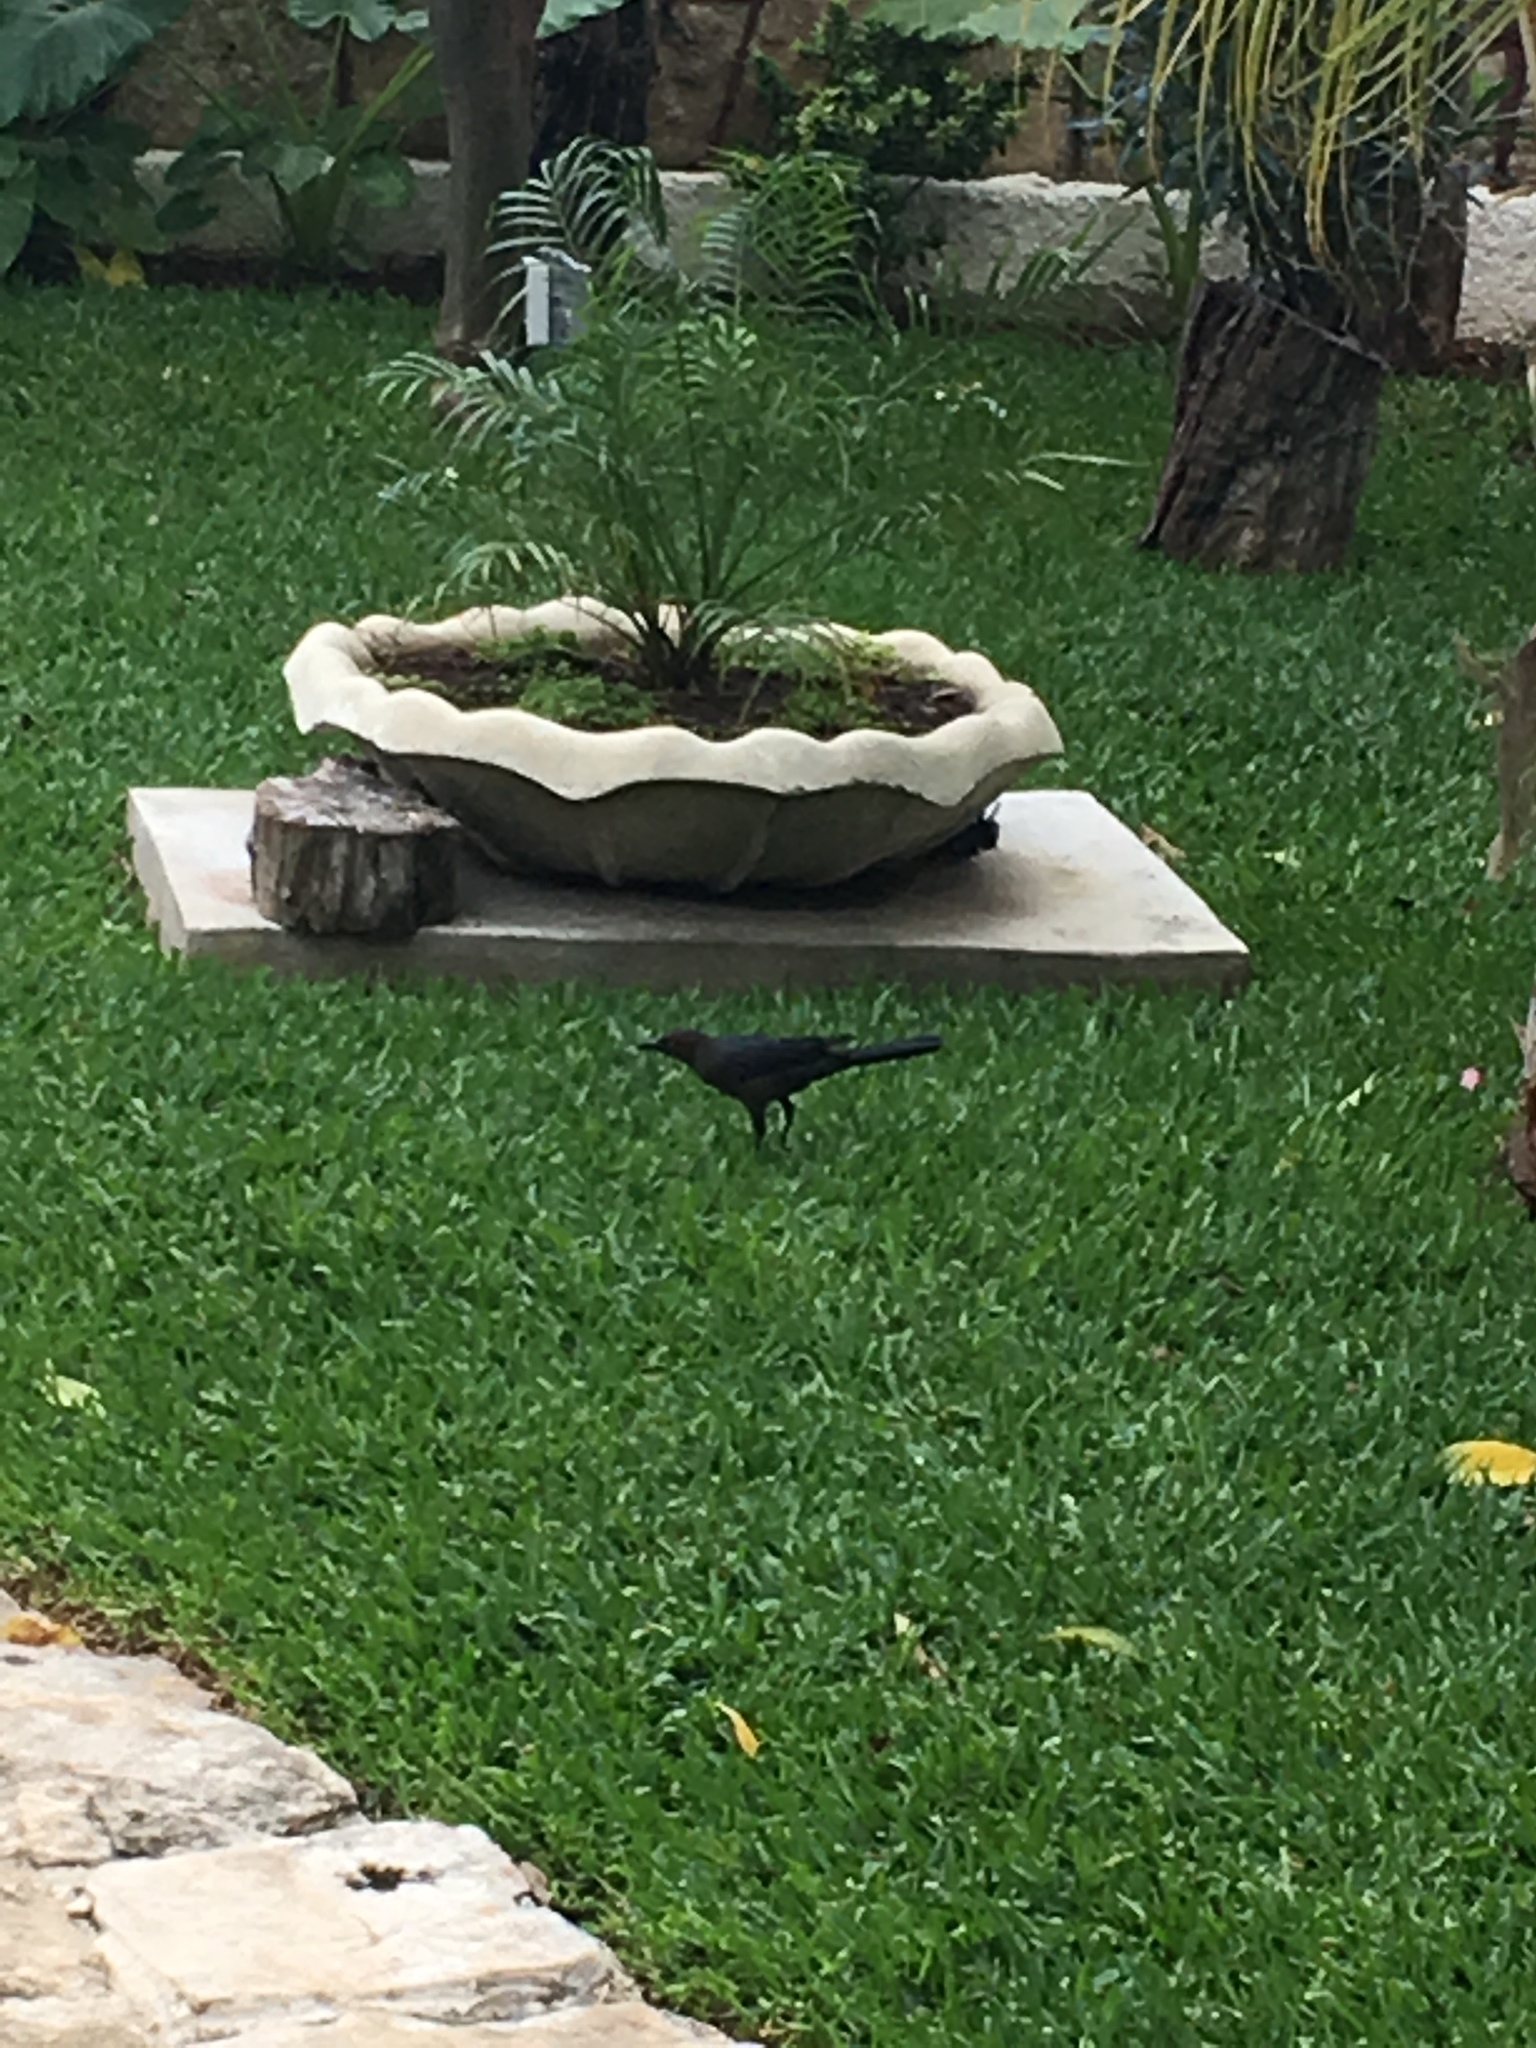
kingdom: Animalia
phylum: Chordata
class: Aves
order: Passeriformes
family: Icteridae
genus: Quiscalus
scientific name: Quiscalus mexicanus
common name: Great-tailed grackle
